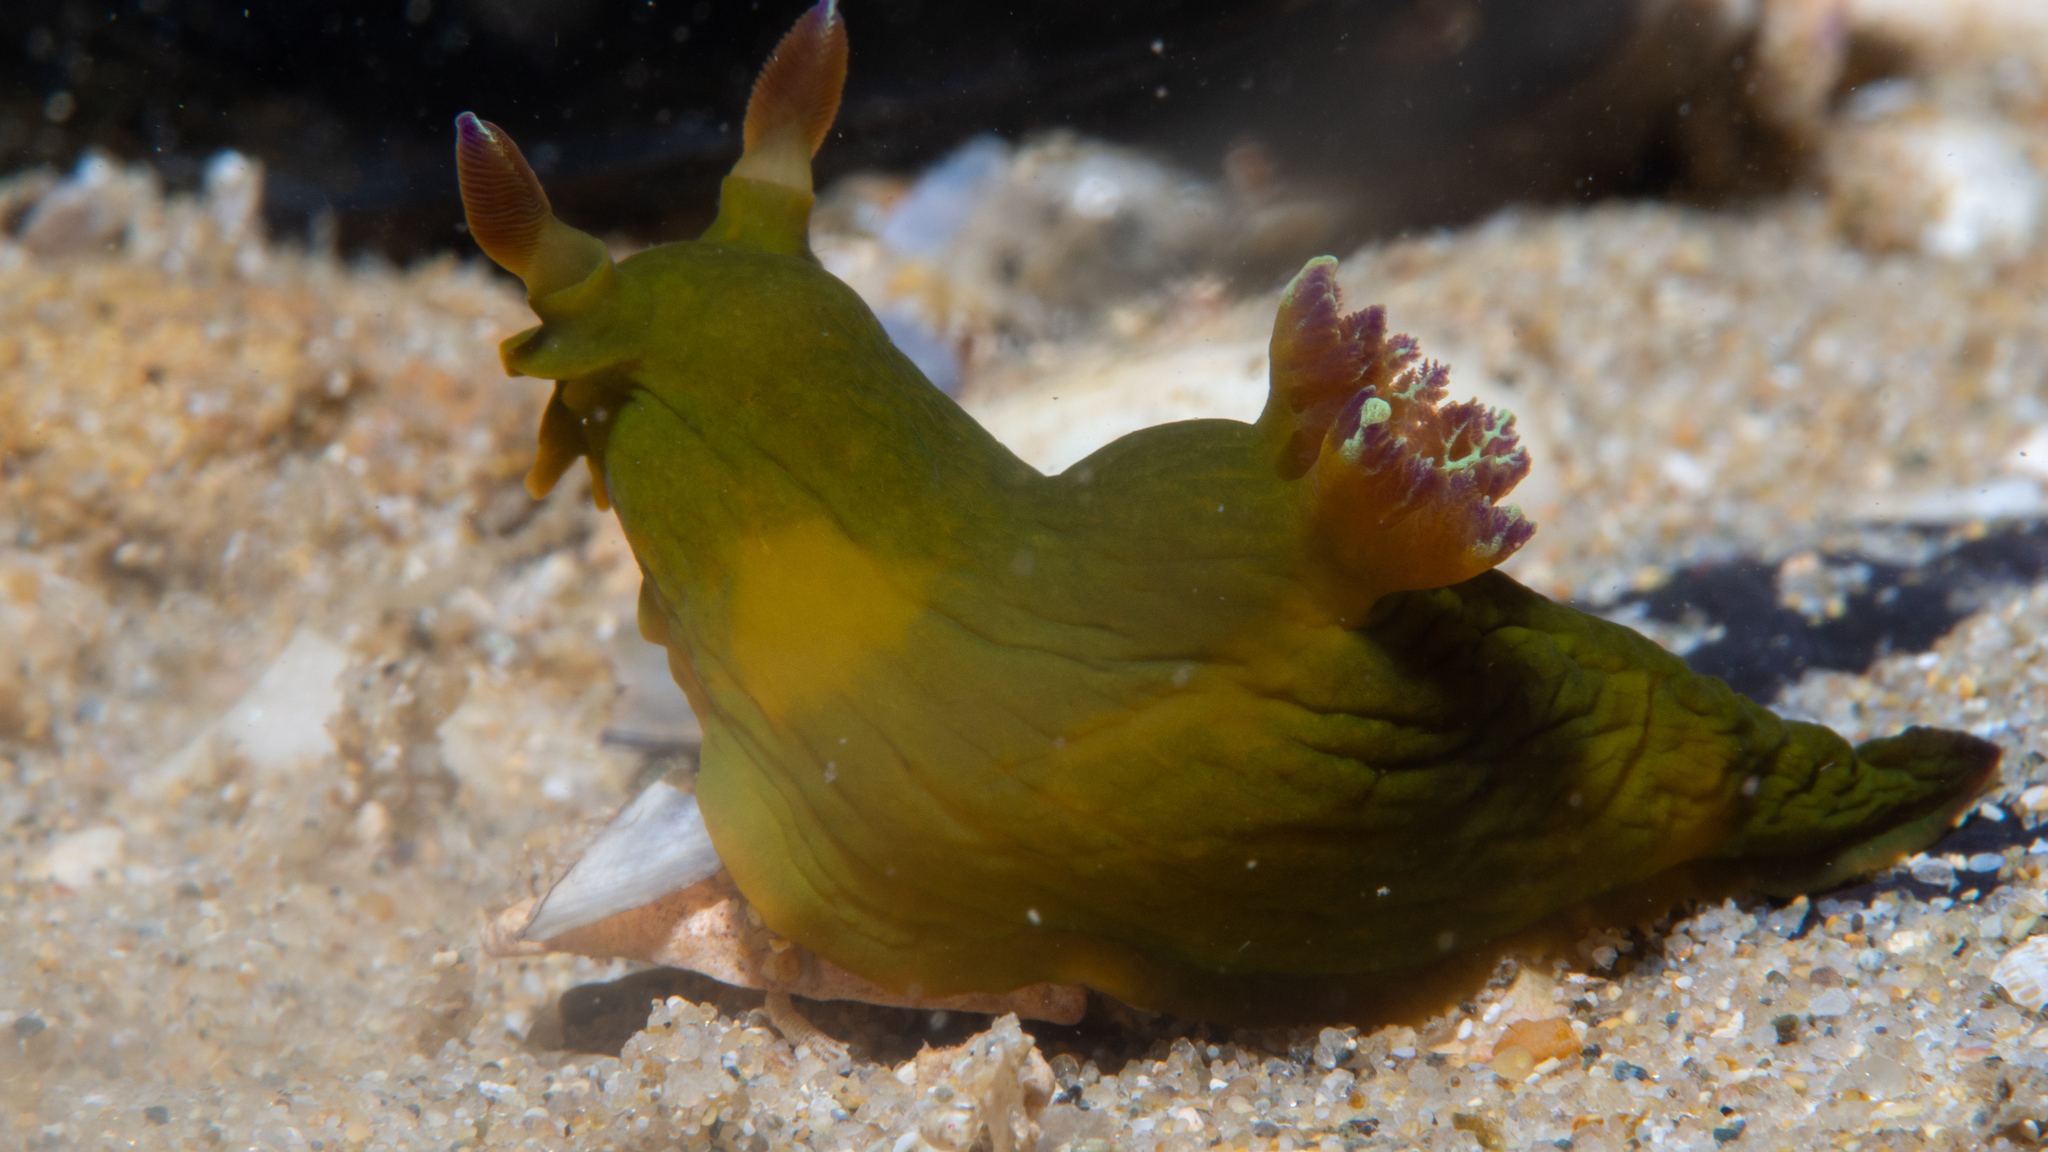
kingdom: Animalia
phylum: Mollusca
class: Gastropoda
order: Nudibranchia
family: Polyceridae
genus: Tambja
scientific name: Tambja dracomus
